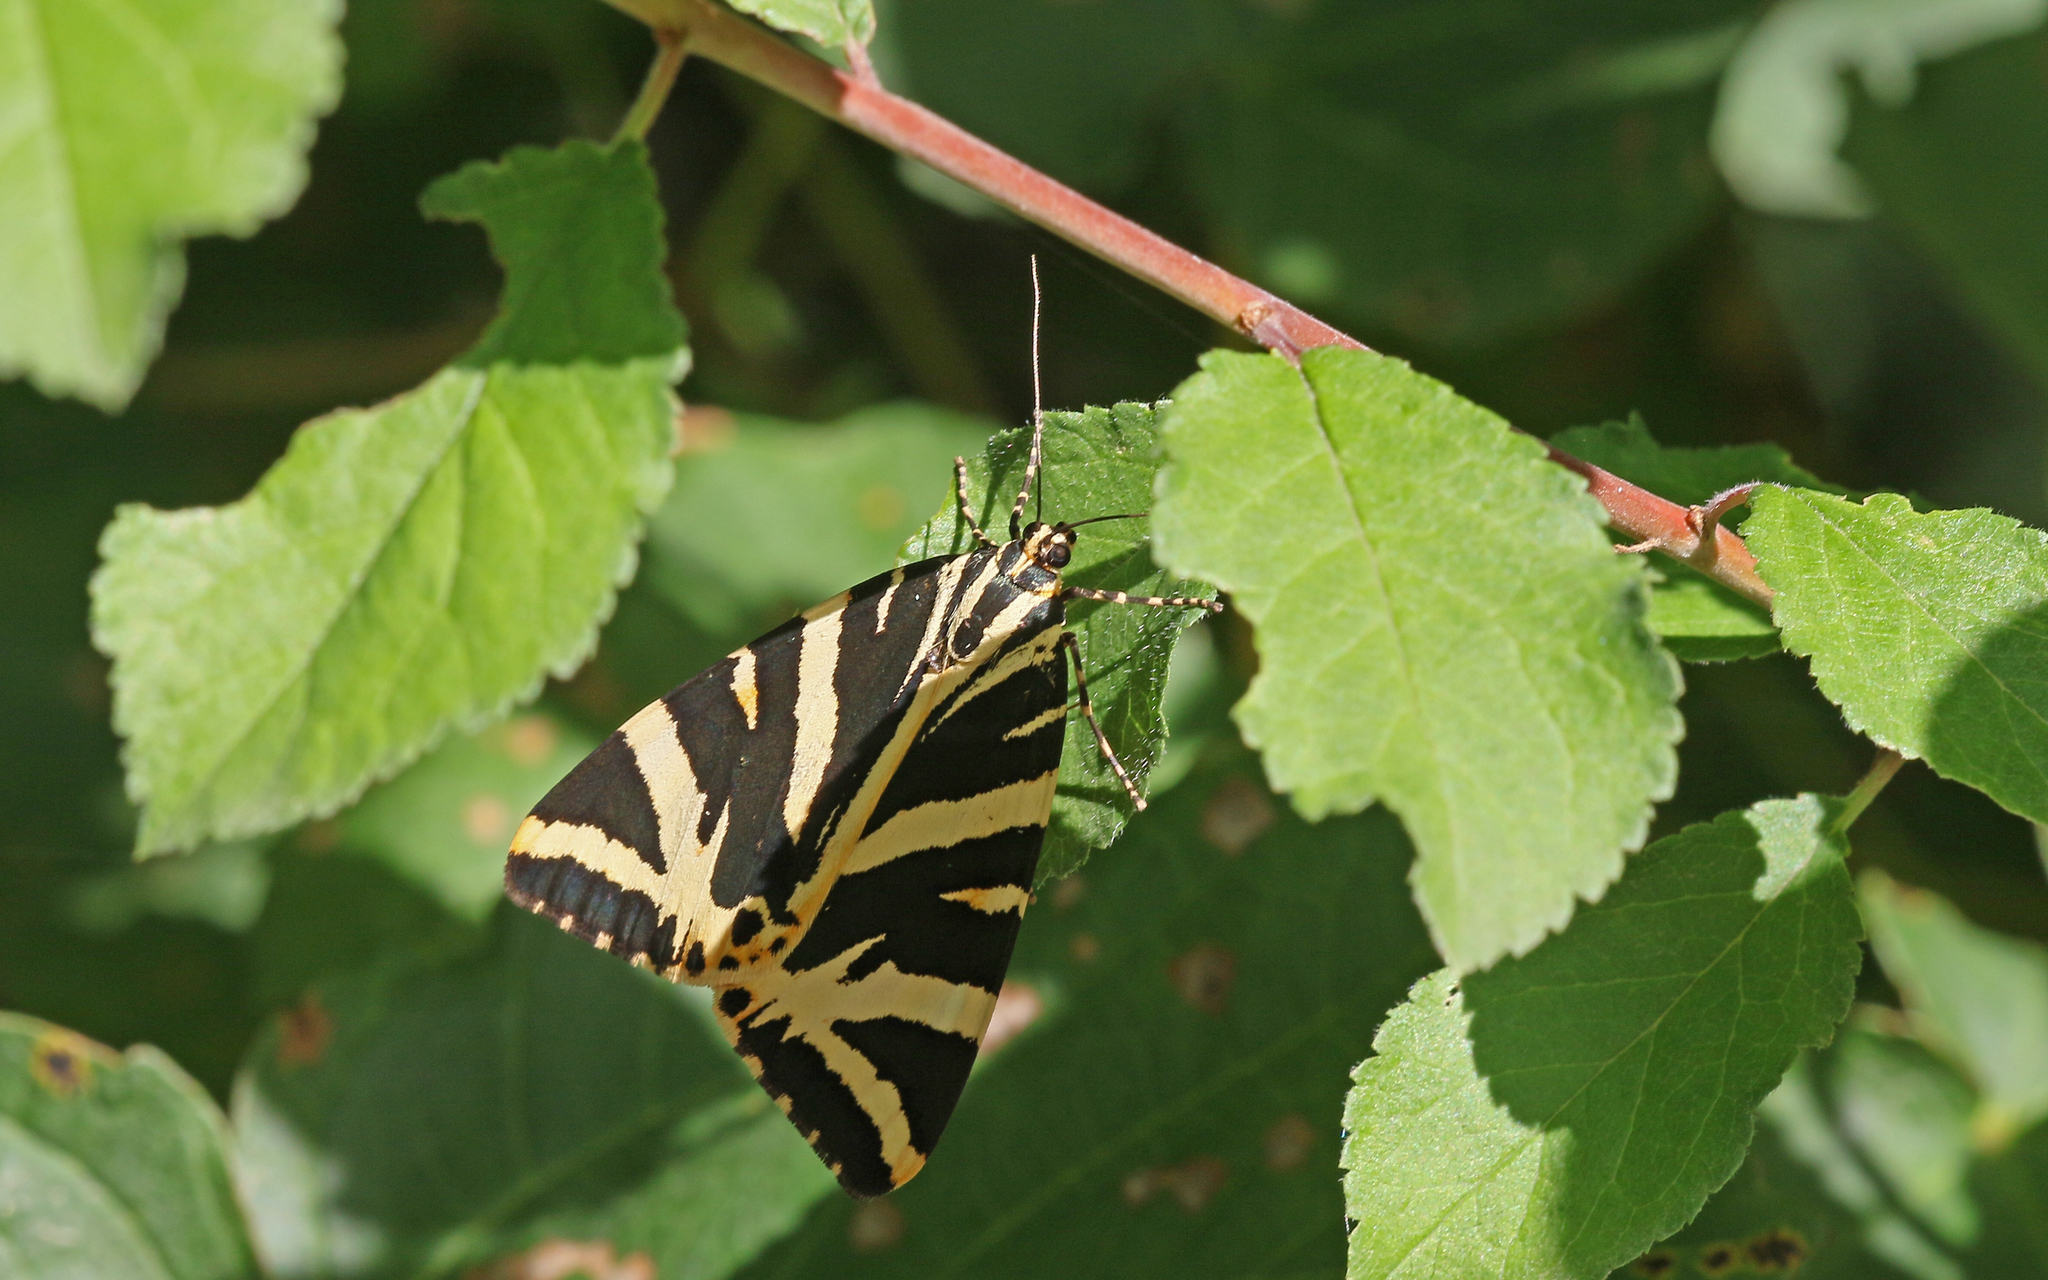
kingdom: Animalia
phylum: Arthropoda
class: Insecta
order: Lepidoptera
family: Erebidae
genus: Euplagia
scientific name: Euplagia quadripunctaria
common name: Jersey tiger
